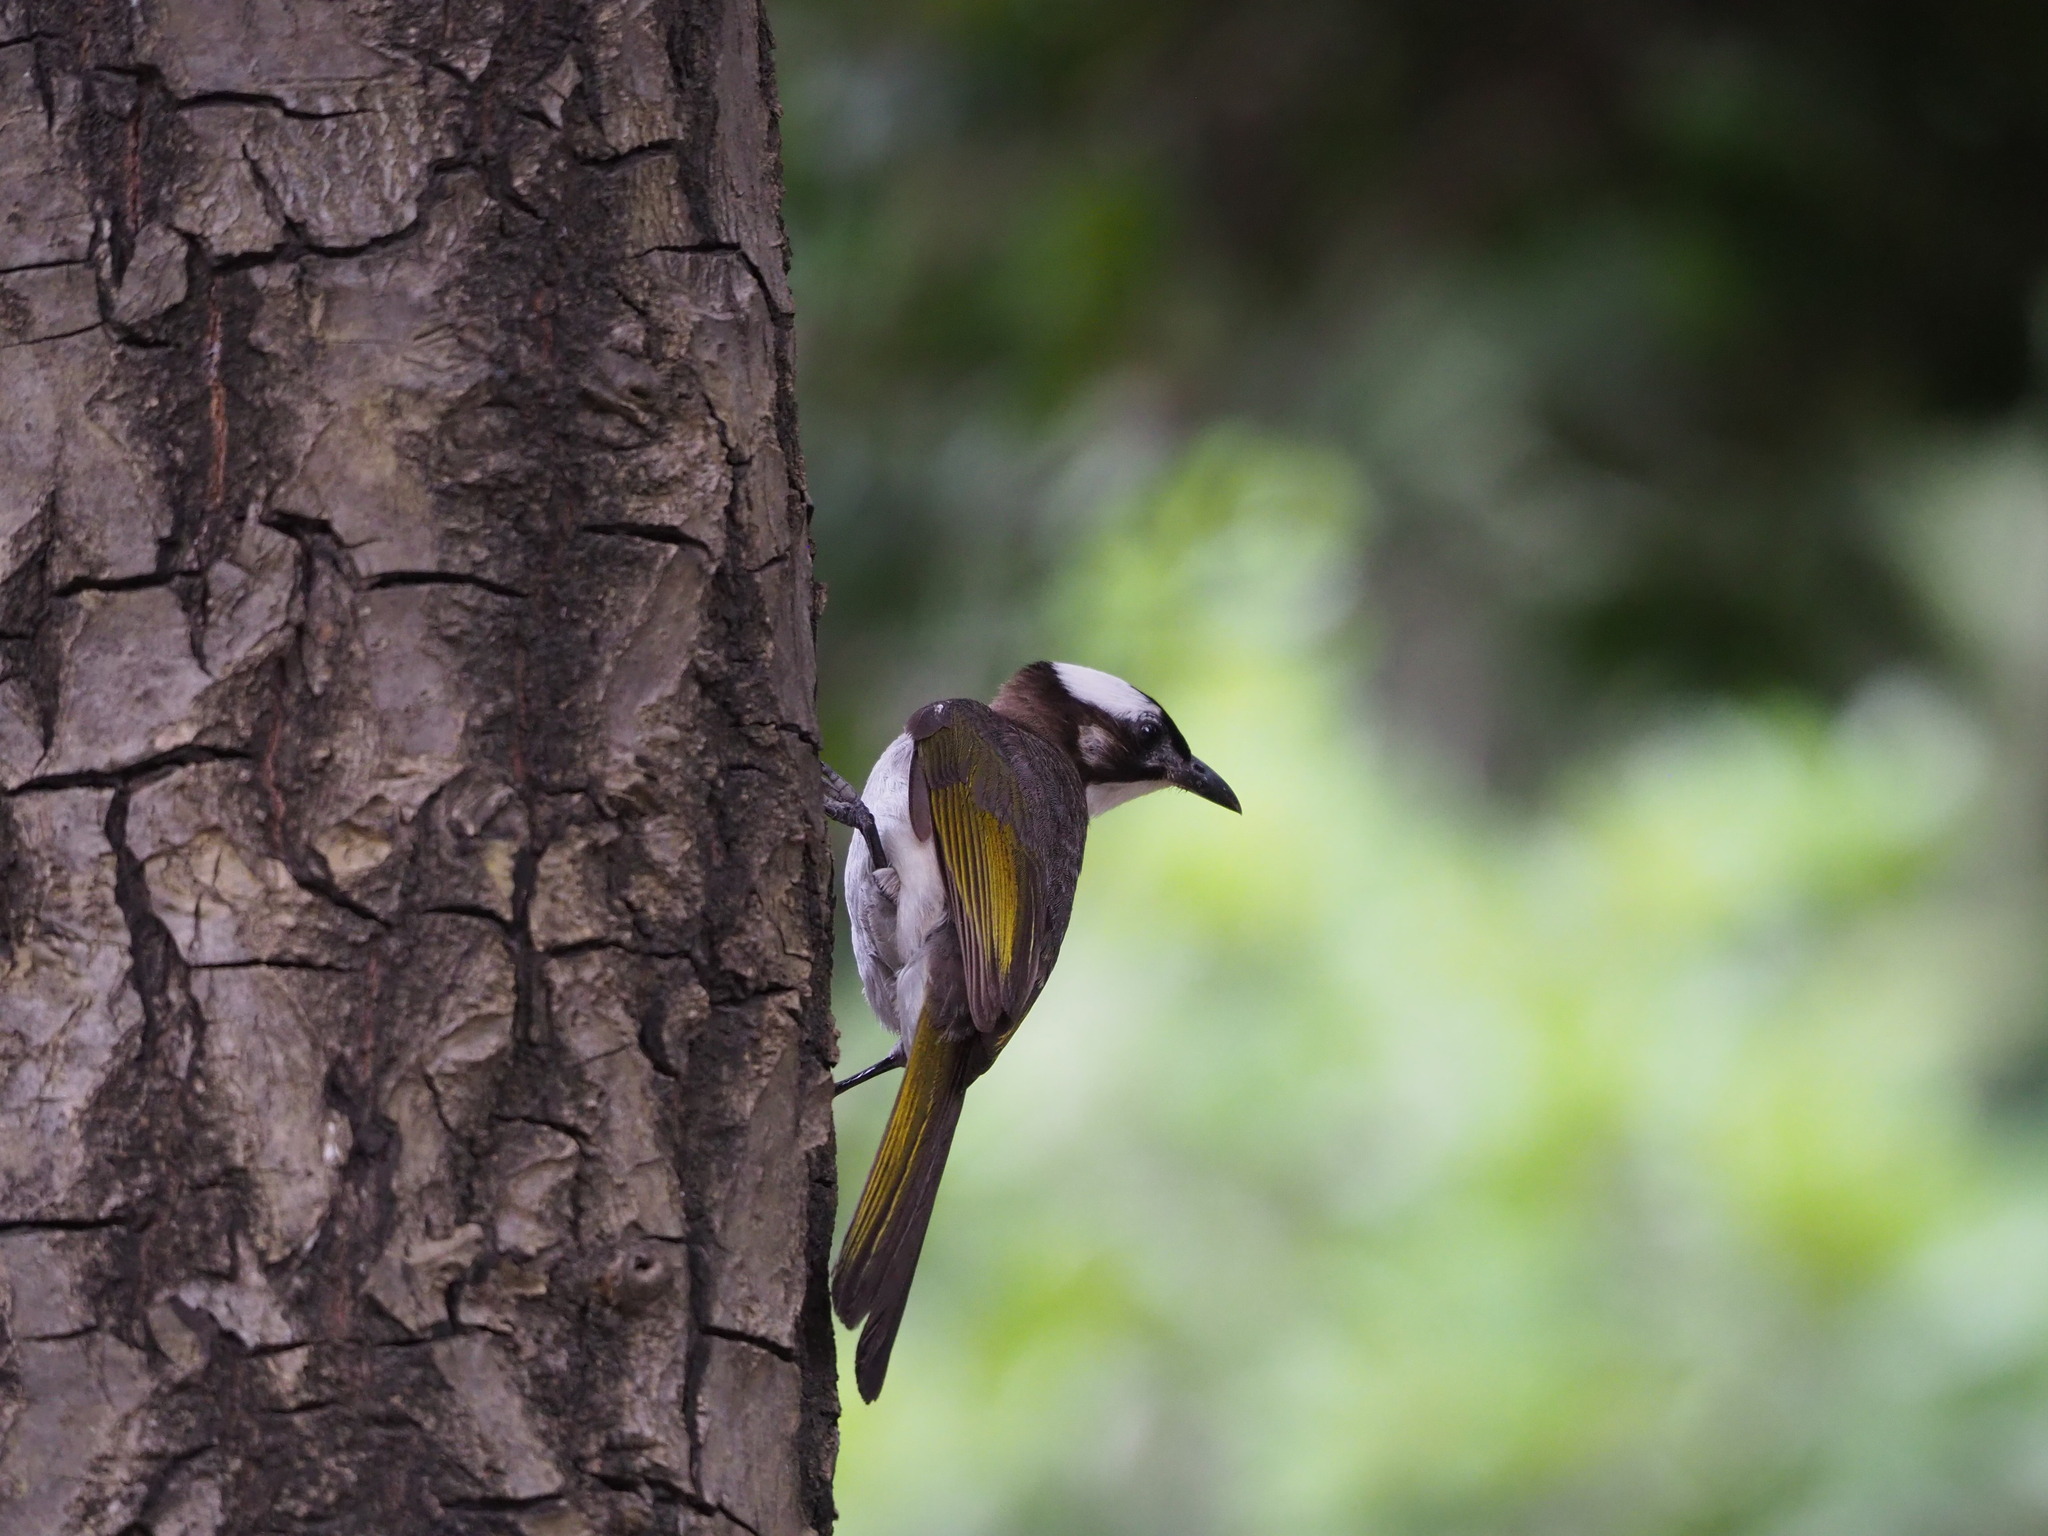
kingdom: Animalia
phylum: Chordata
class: Aves
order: Passeriformes
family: Pycnonotidae
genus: Pycnonotus
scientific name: Pycnonotus sinensis
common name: Light-vented bulbul
